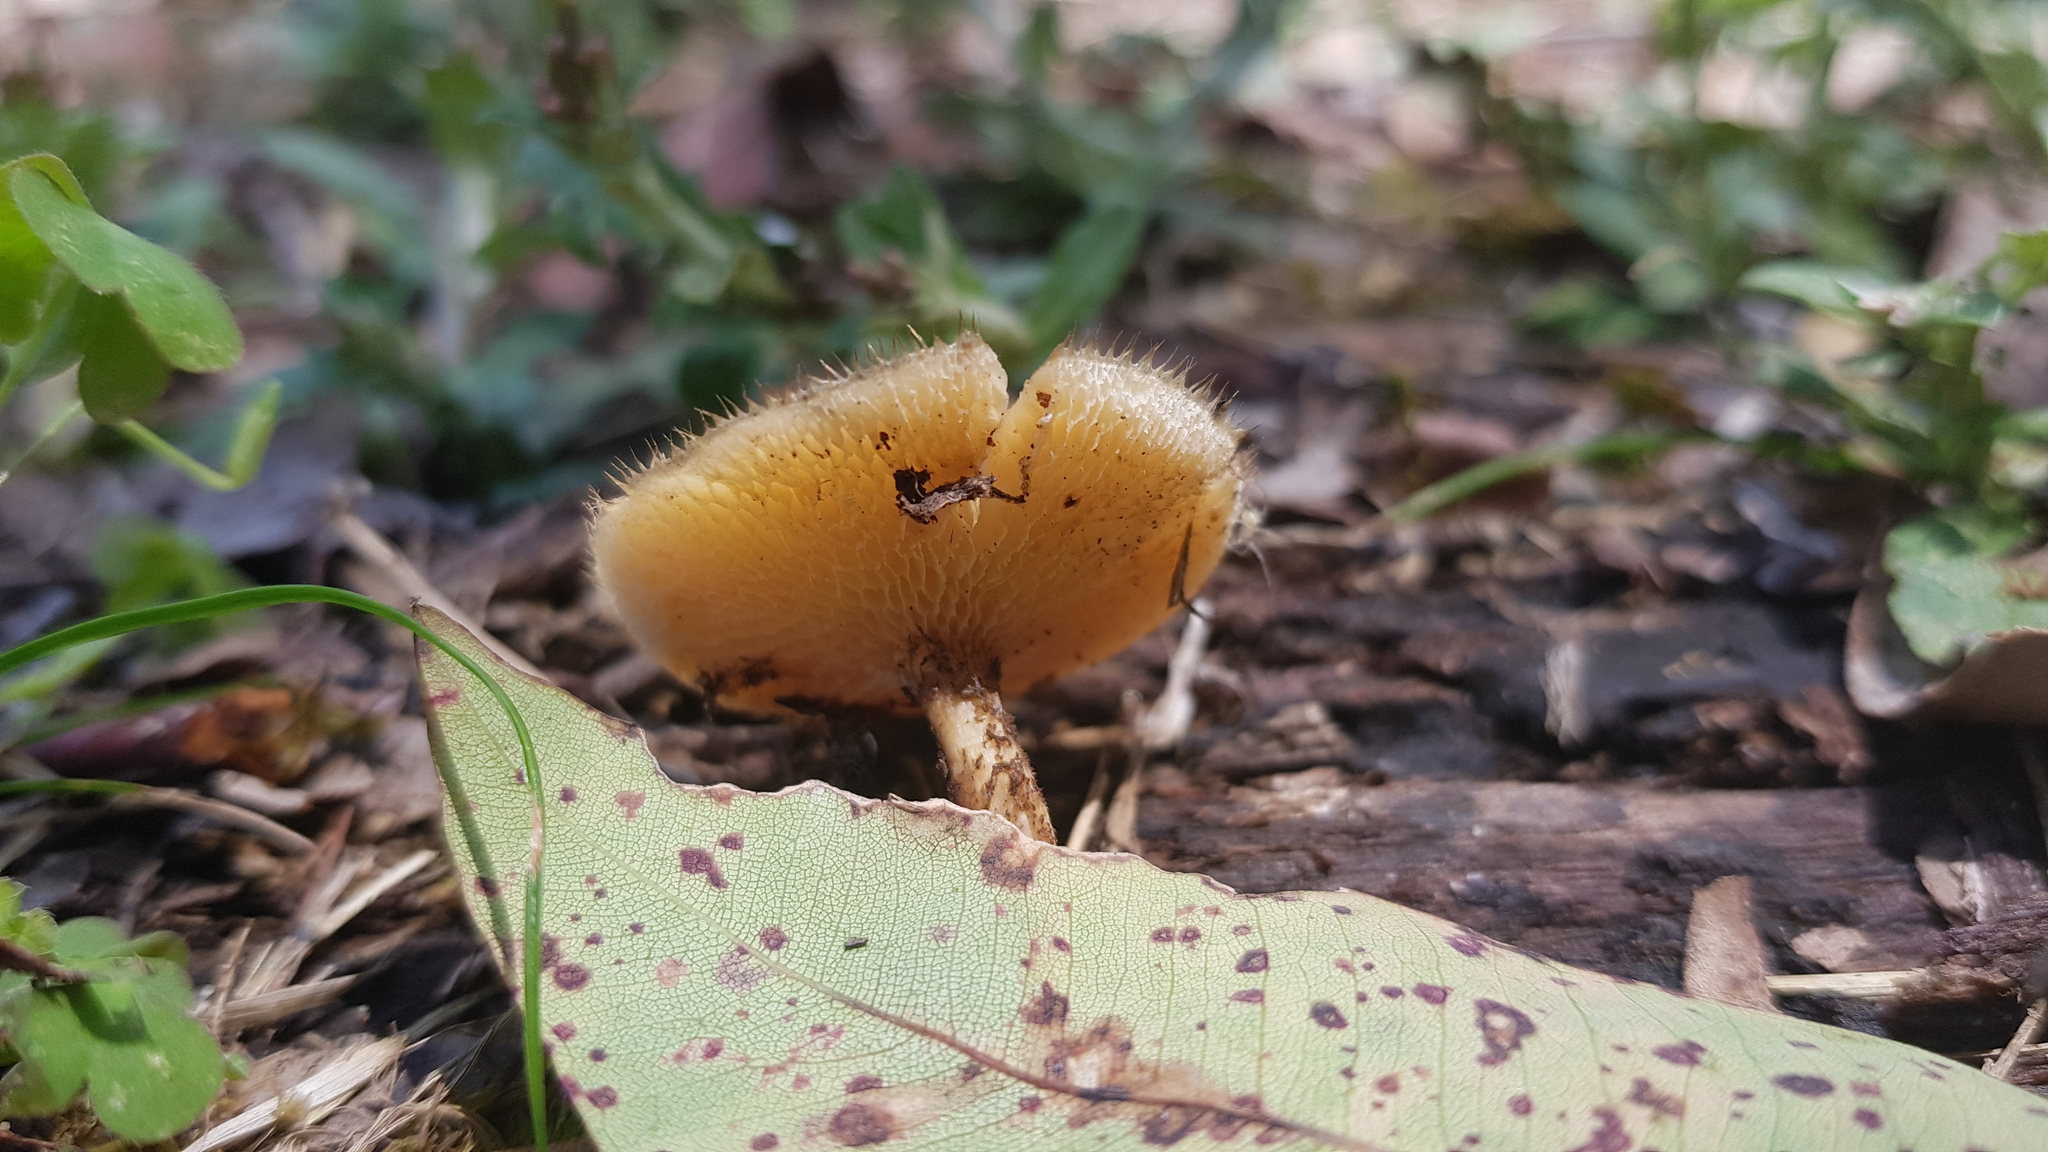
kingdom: Fungi
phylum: Basidiomycota
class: Agaricomycetes
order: Polyporales
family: Polyporaceae
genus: Lentinus
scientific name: Lentinus arcularius
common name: Spring polypore
